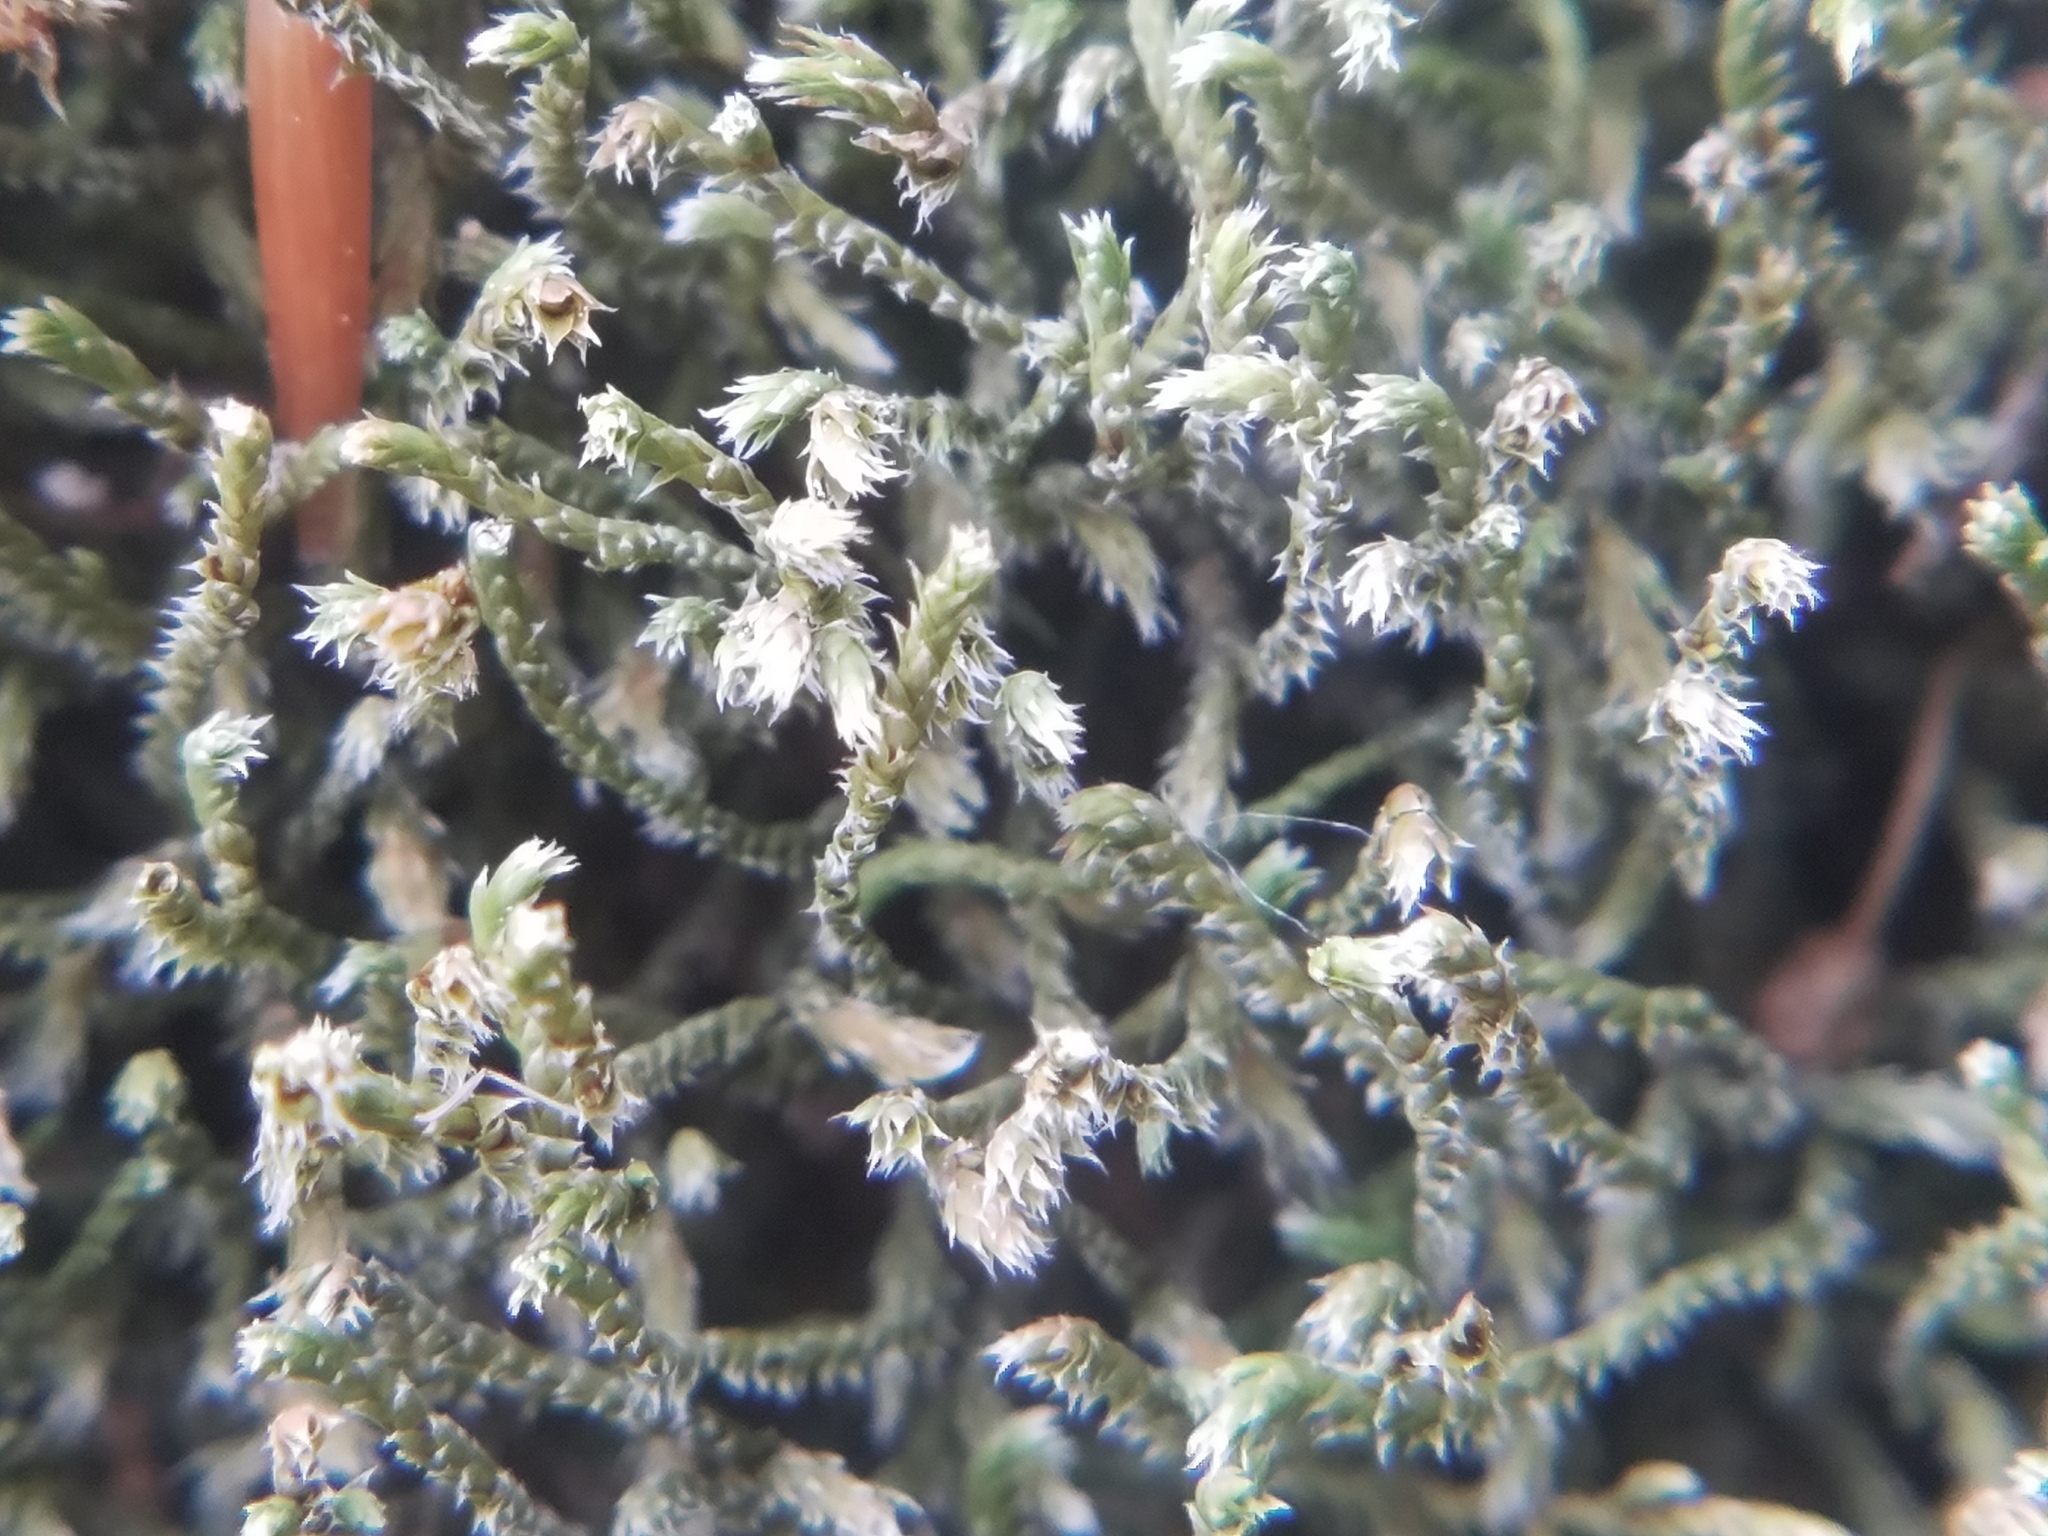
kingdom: Plantae
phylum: Bryophyta
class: Bryopsida
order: Hedwigiales
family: Hedwigiaceae
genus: Hedwigia
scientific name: Hedwigia ciliata
